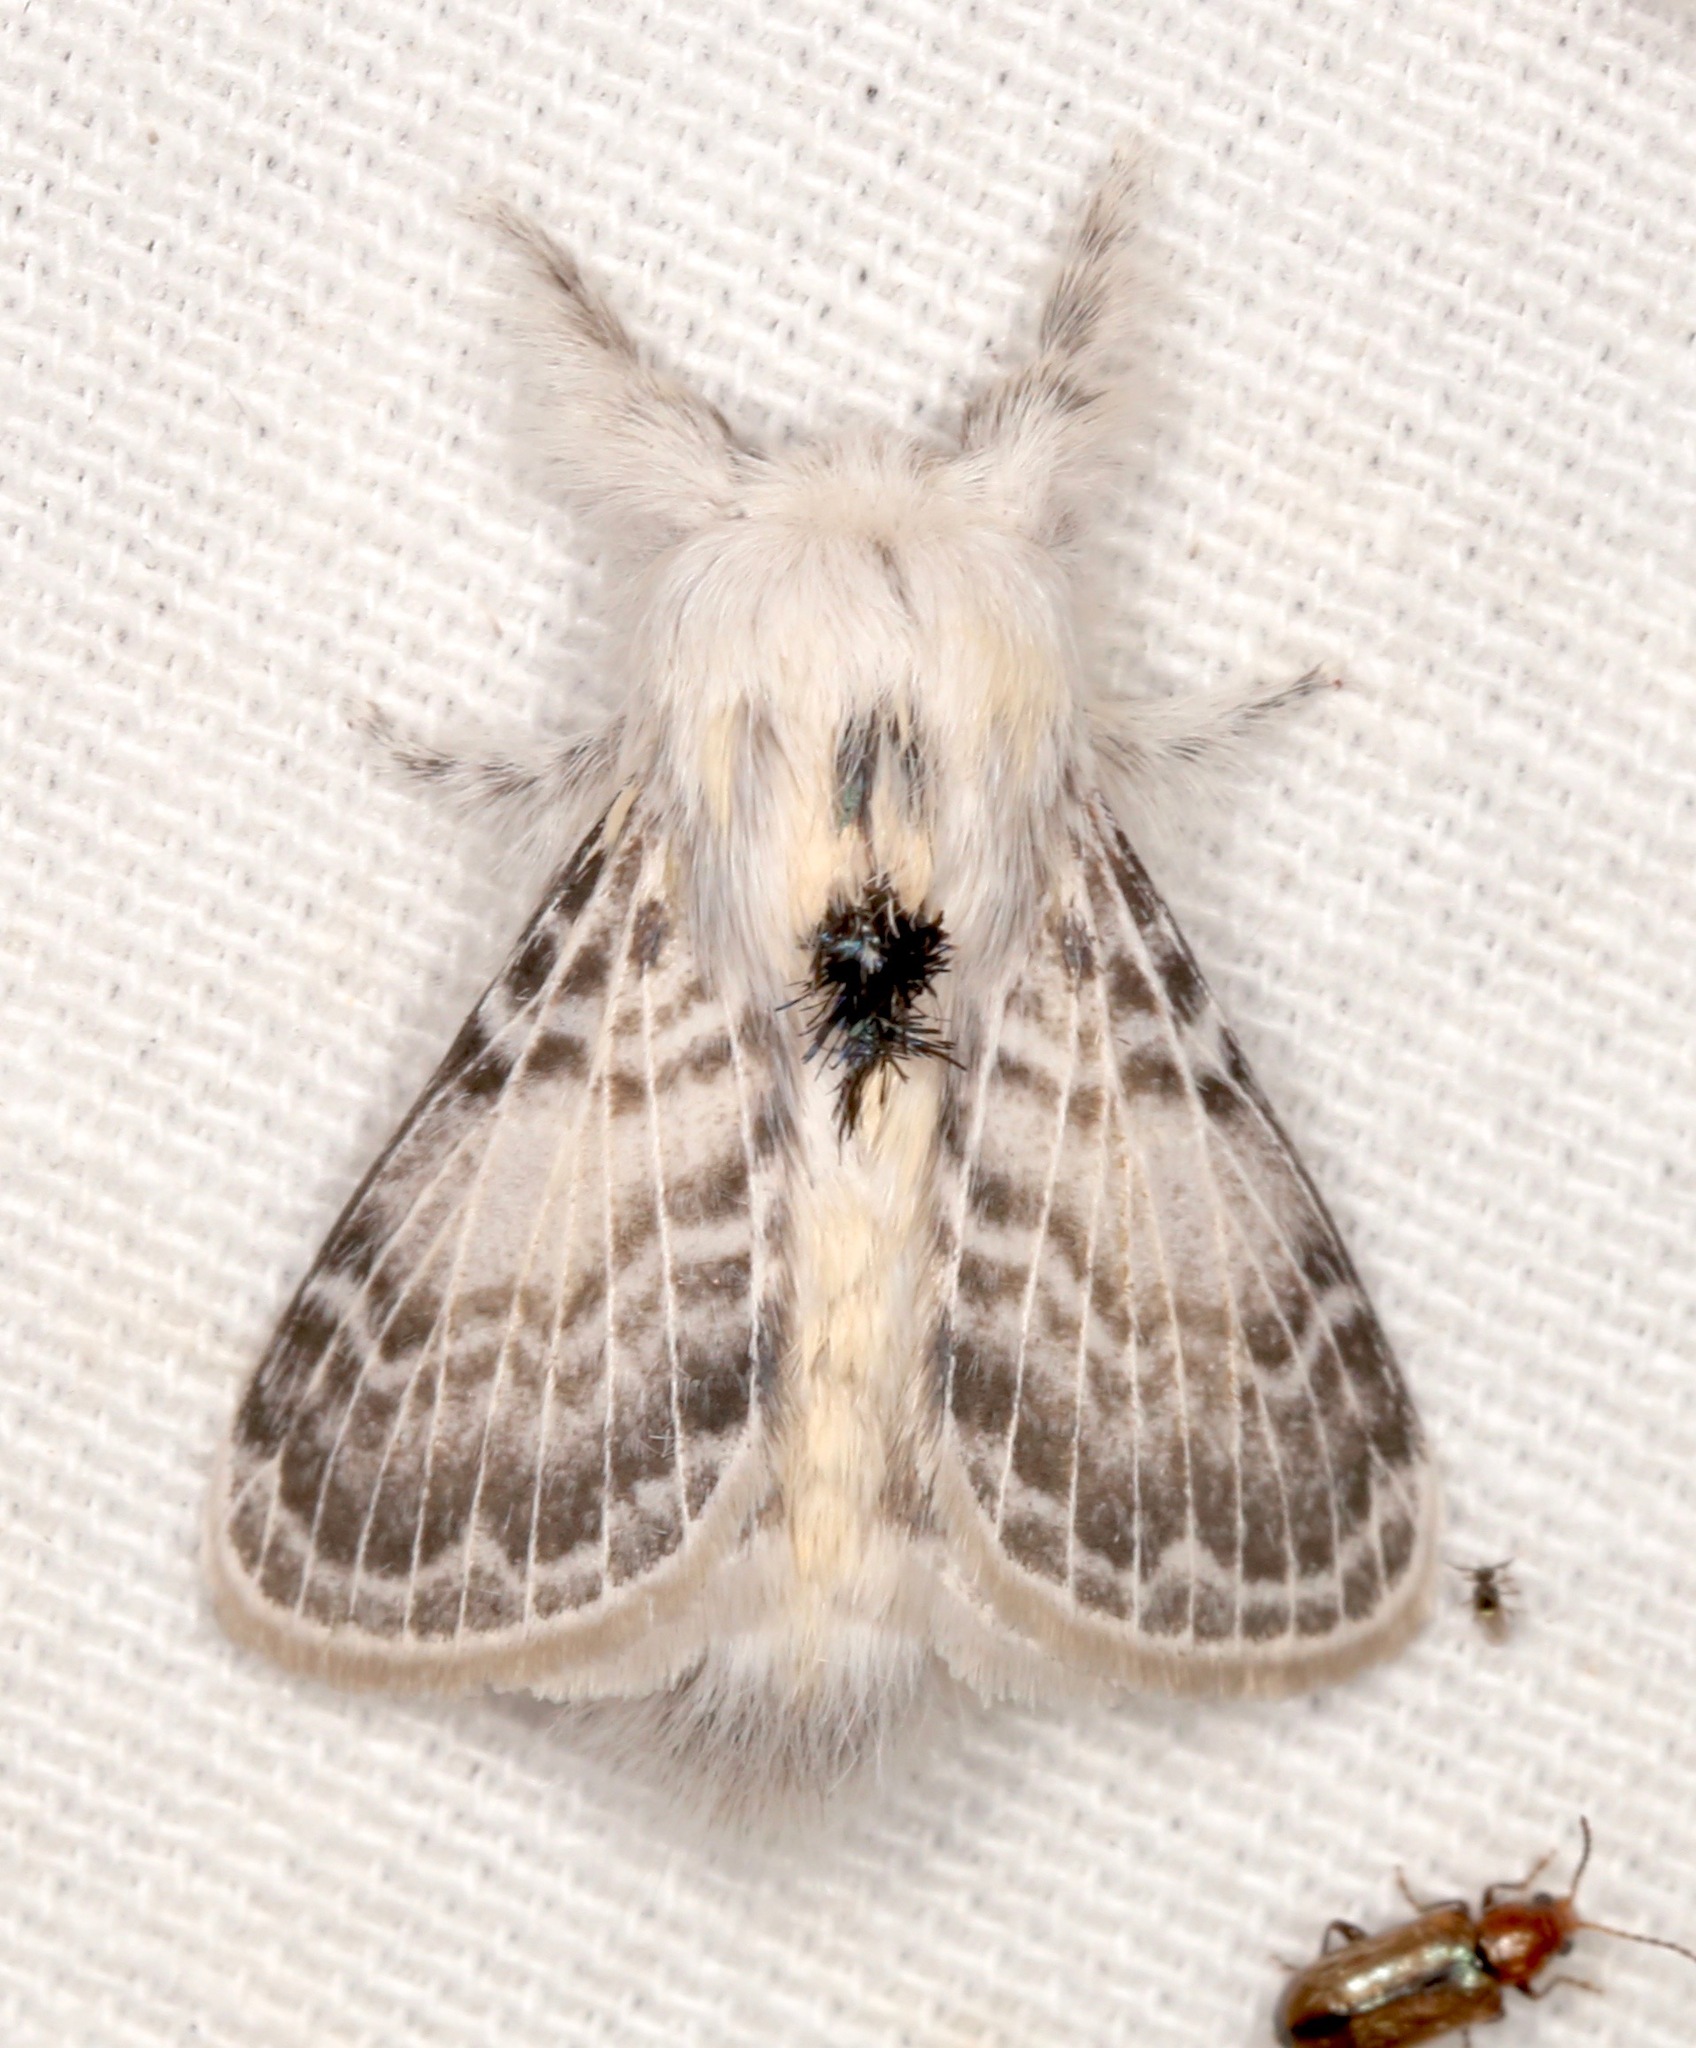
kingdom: Animalia
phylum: Arthropoda
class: Insecta
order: Lepidoptera
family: Lasiocampidae
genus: Apotolype
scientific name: Apotolype brevicrista
